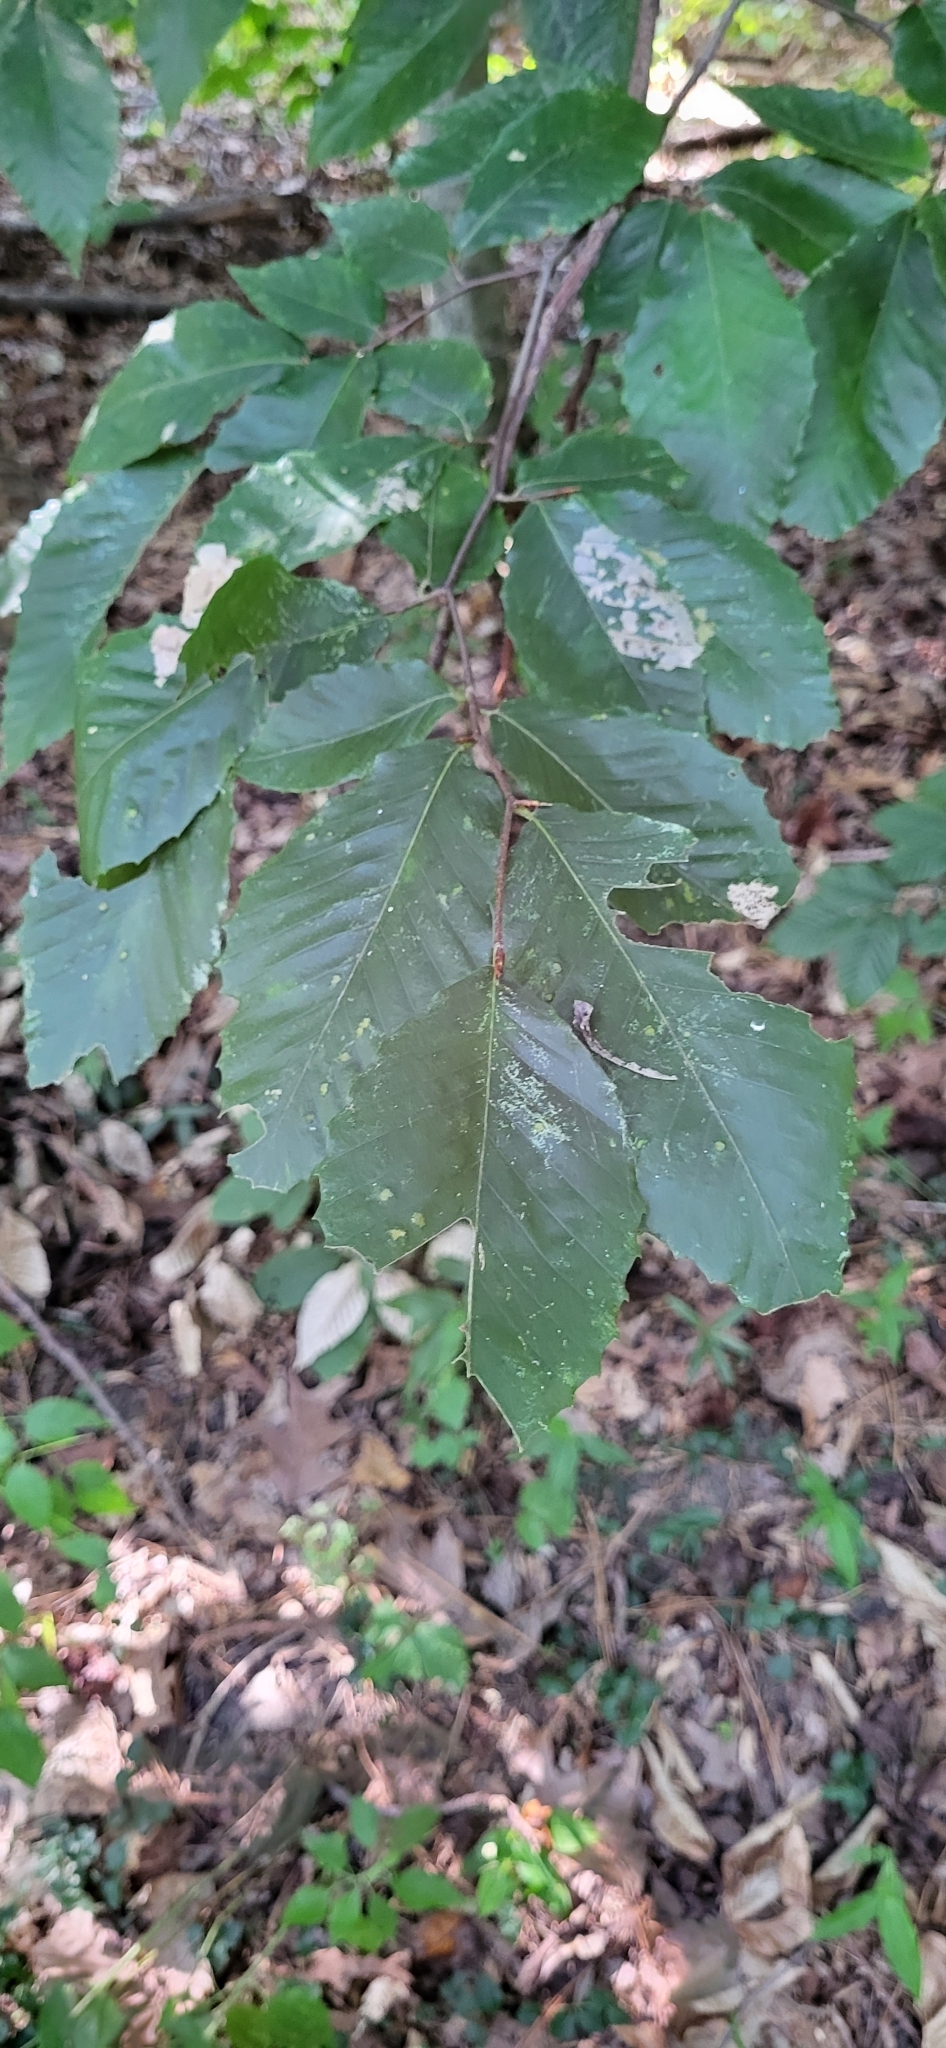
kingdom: Plantae
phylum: Tracheophyta
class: Magnoliopsida
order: Fagales
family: Fagaceae
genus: Fagus
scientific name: Fagus grandifolia
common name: American beech
